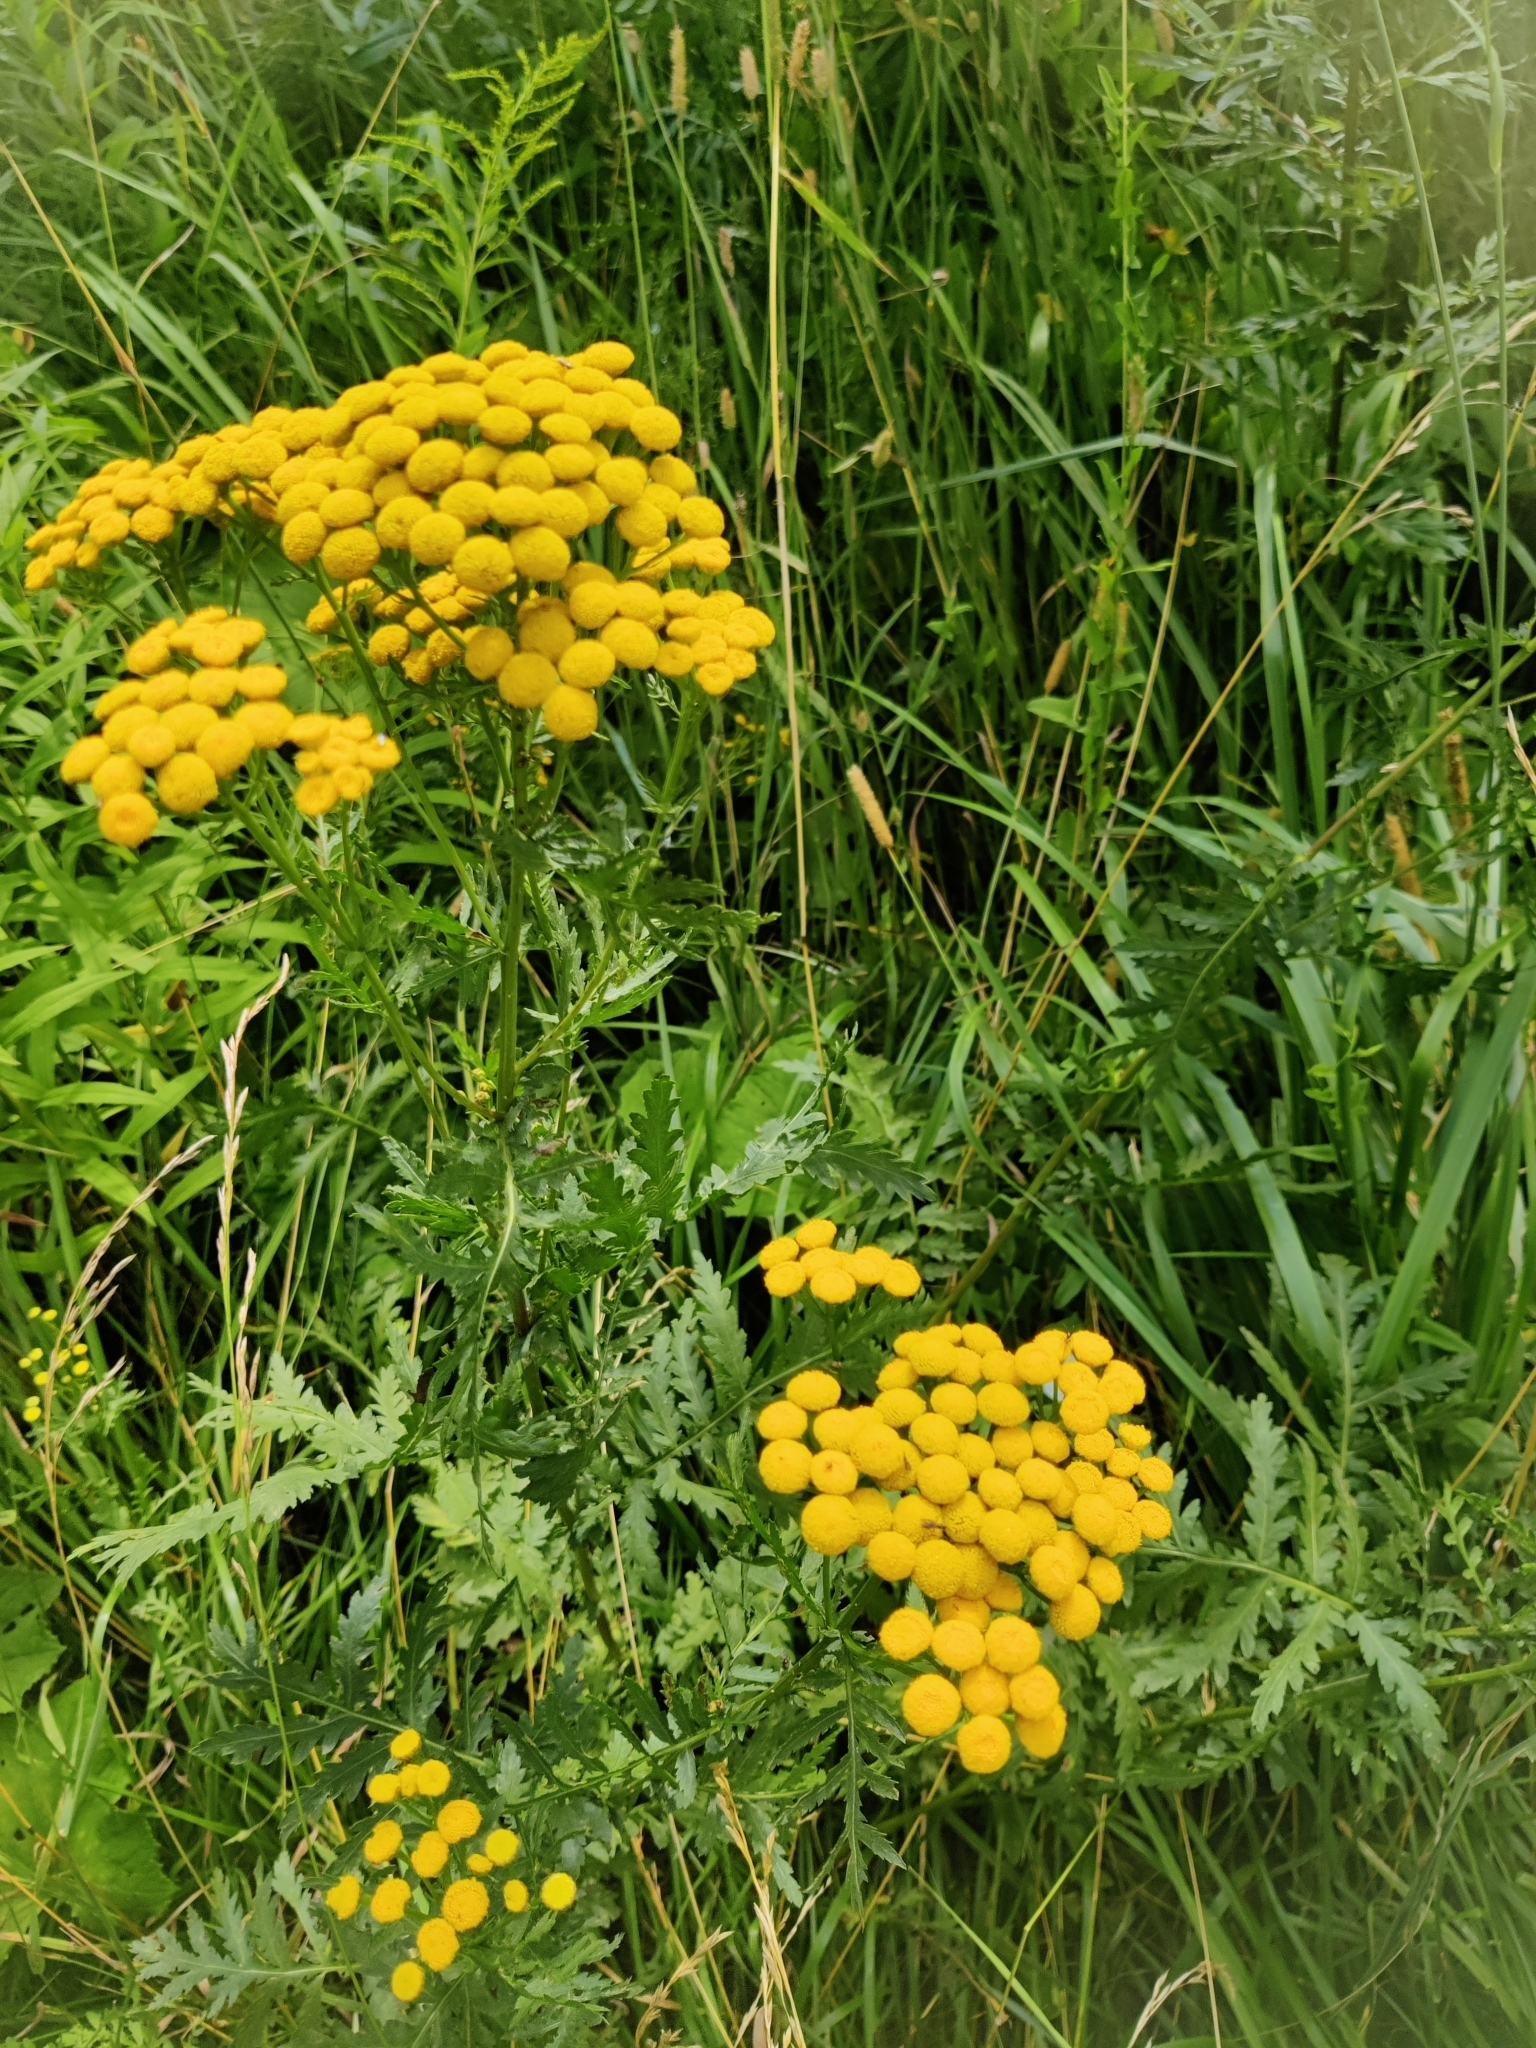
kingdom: Plantae
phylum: Tracheophyta
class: Magnoliopsida
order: Asterales
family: Asteraceae
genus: Tanacetum
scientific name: Tanacetum vulgare
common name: Common tansy
